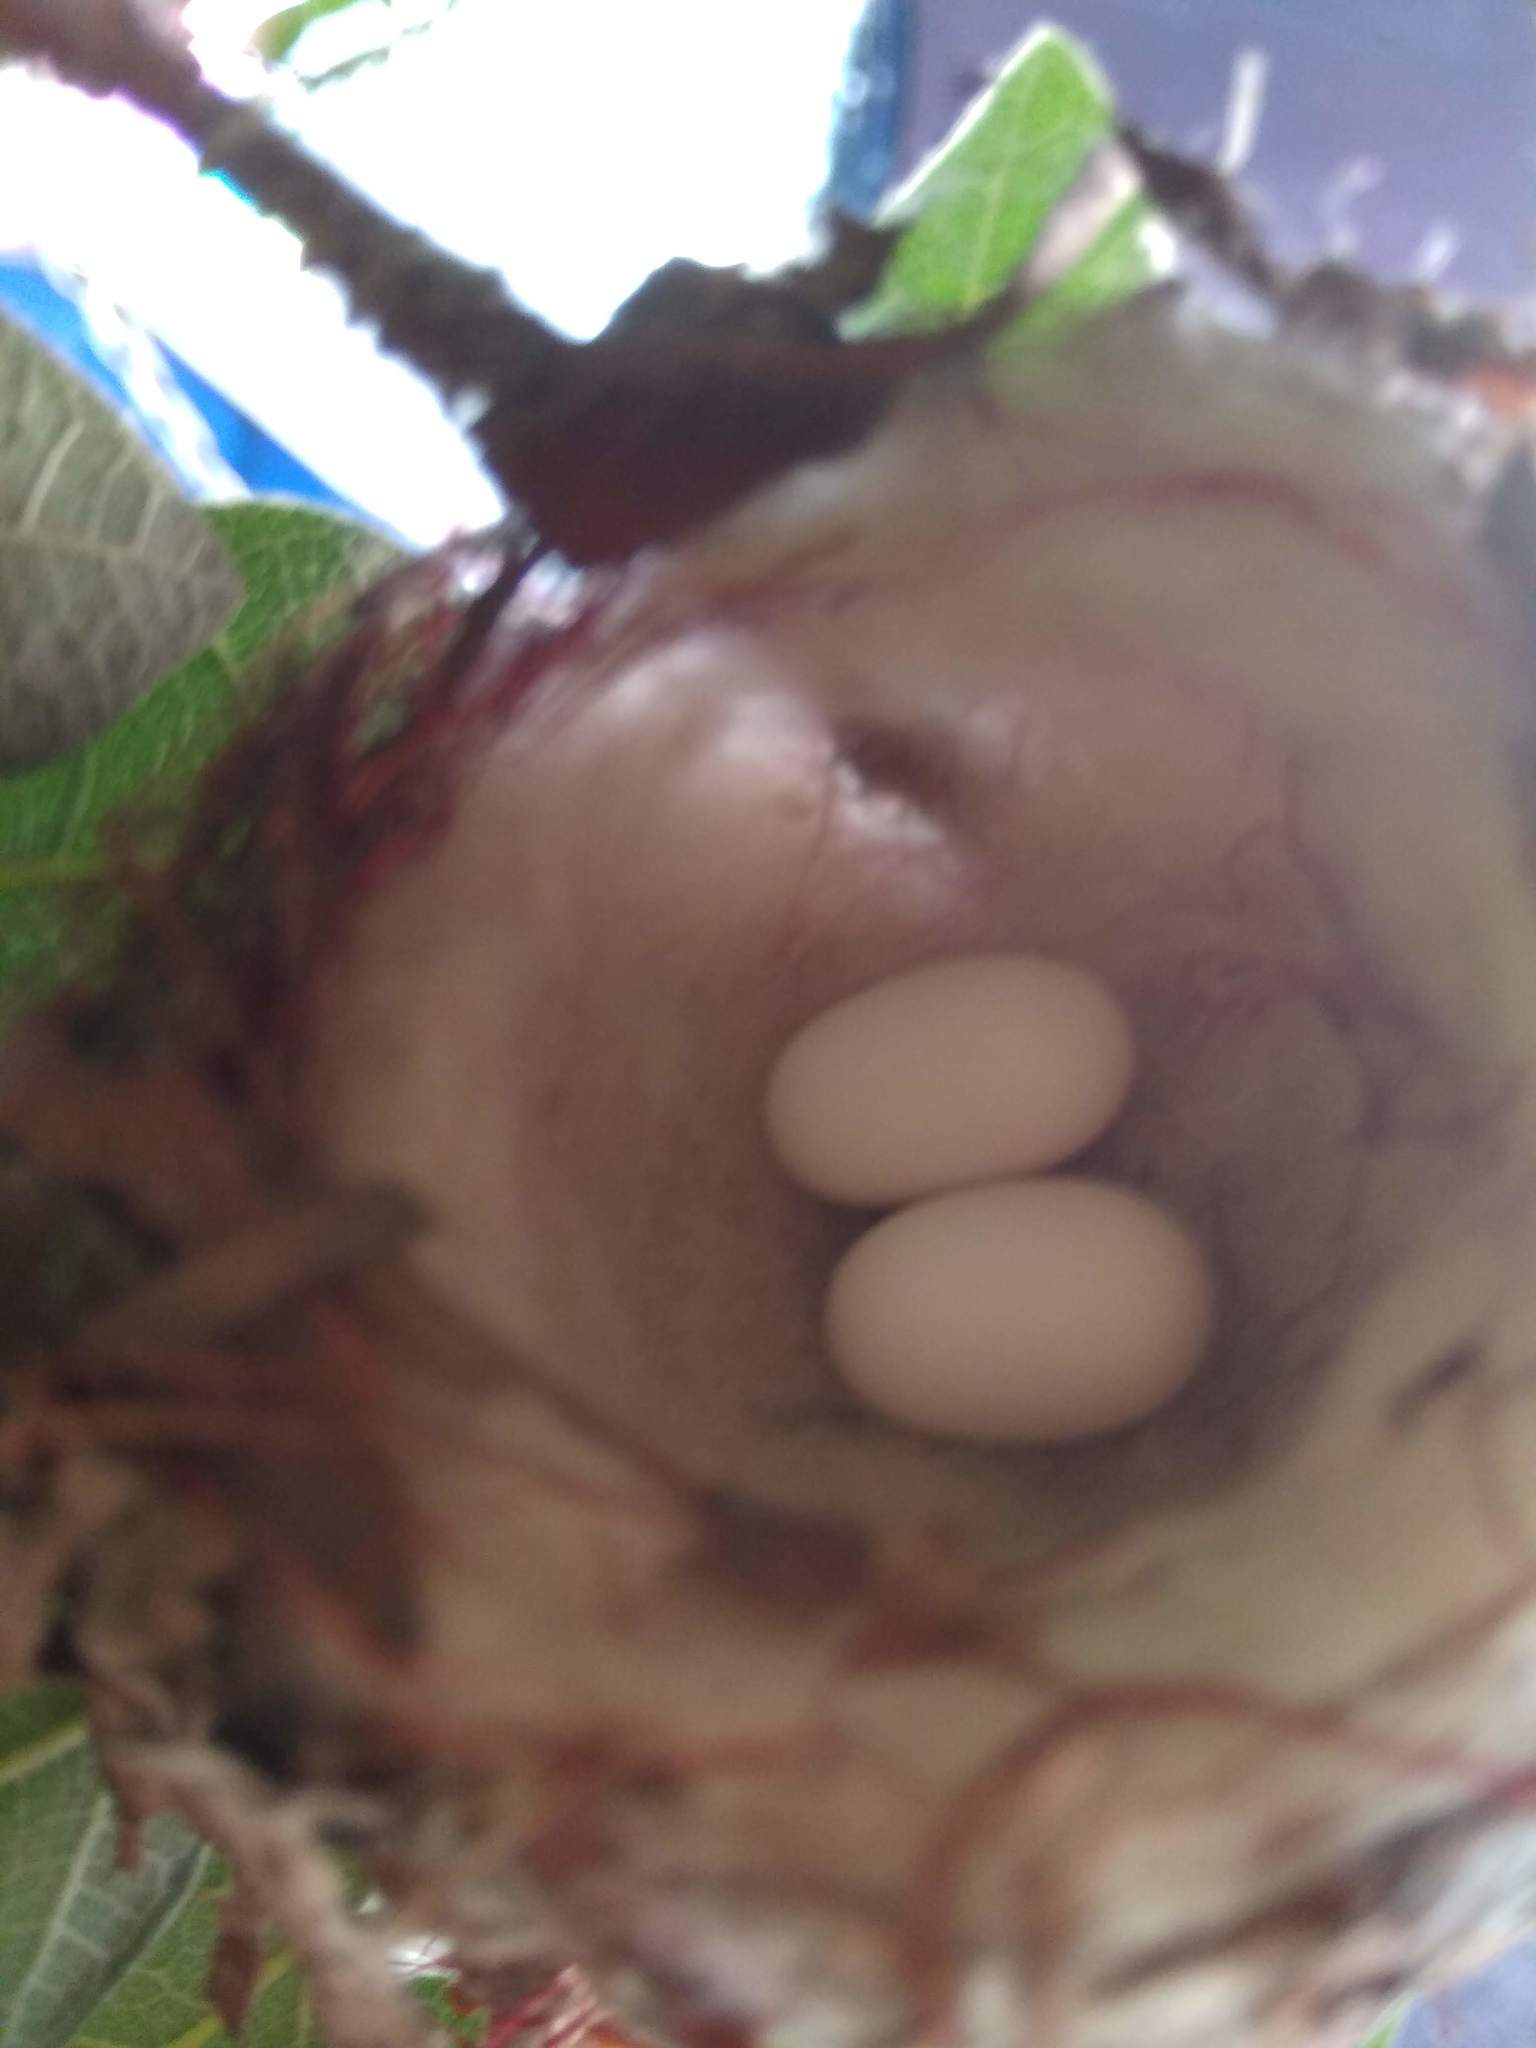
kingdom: Animalia
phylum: Chordata
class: Aves
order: Apodiformes
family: Trochilidae
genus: Chlorostilbon
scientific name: Chlorostilbon lucidus
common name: Glittering-bellied emerald
